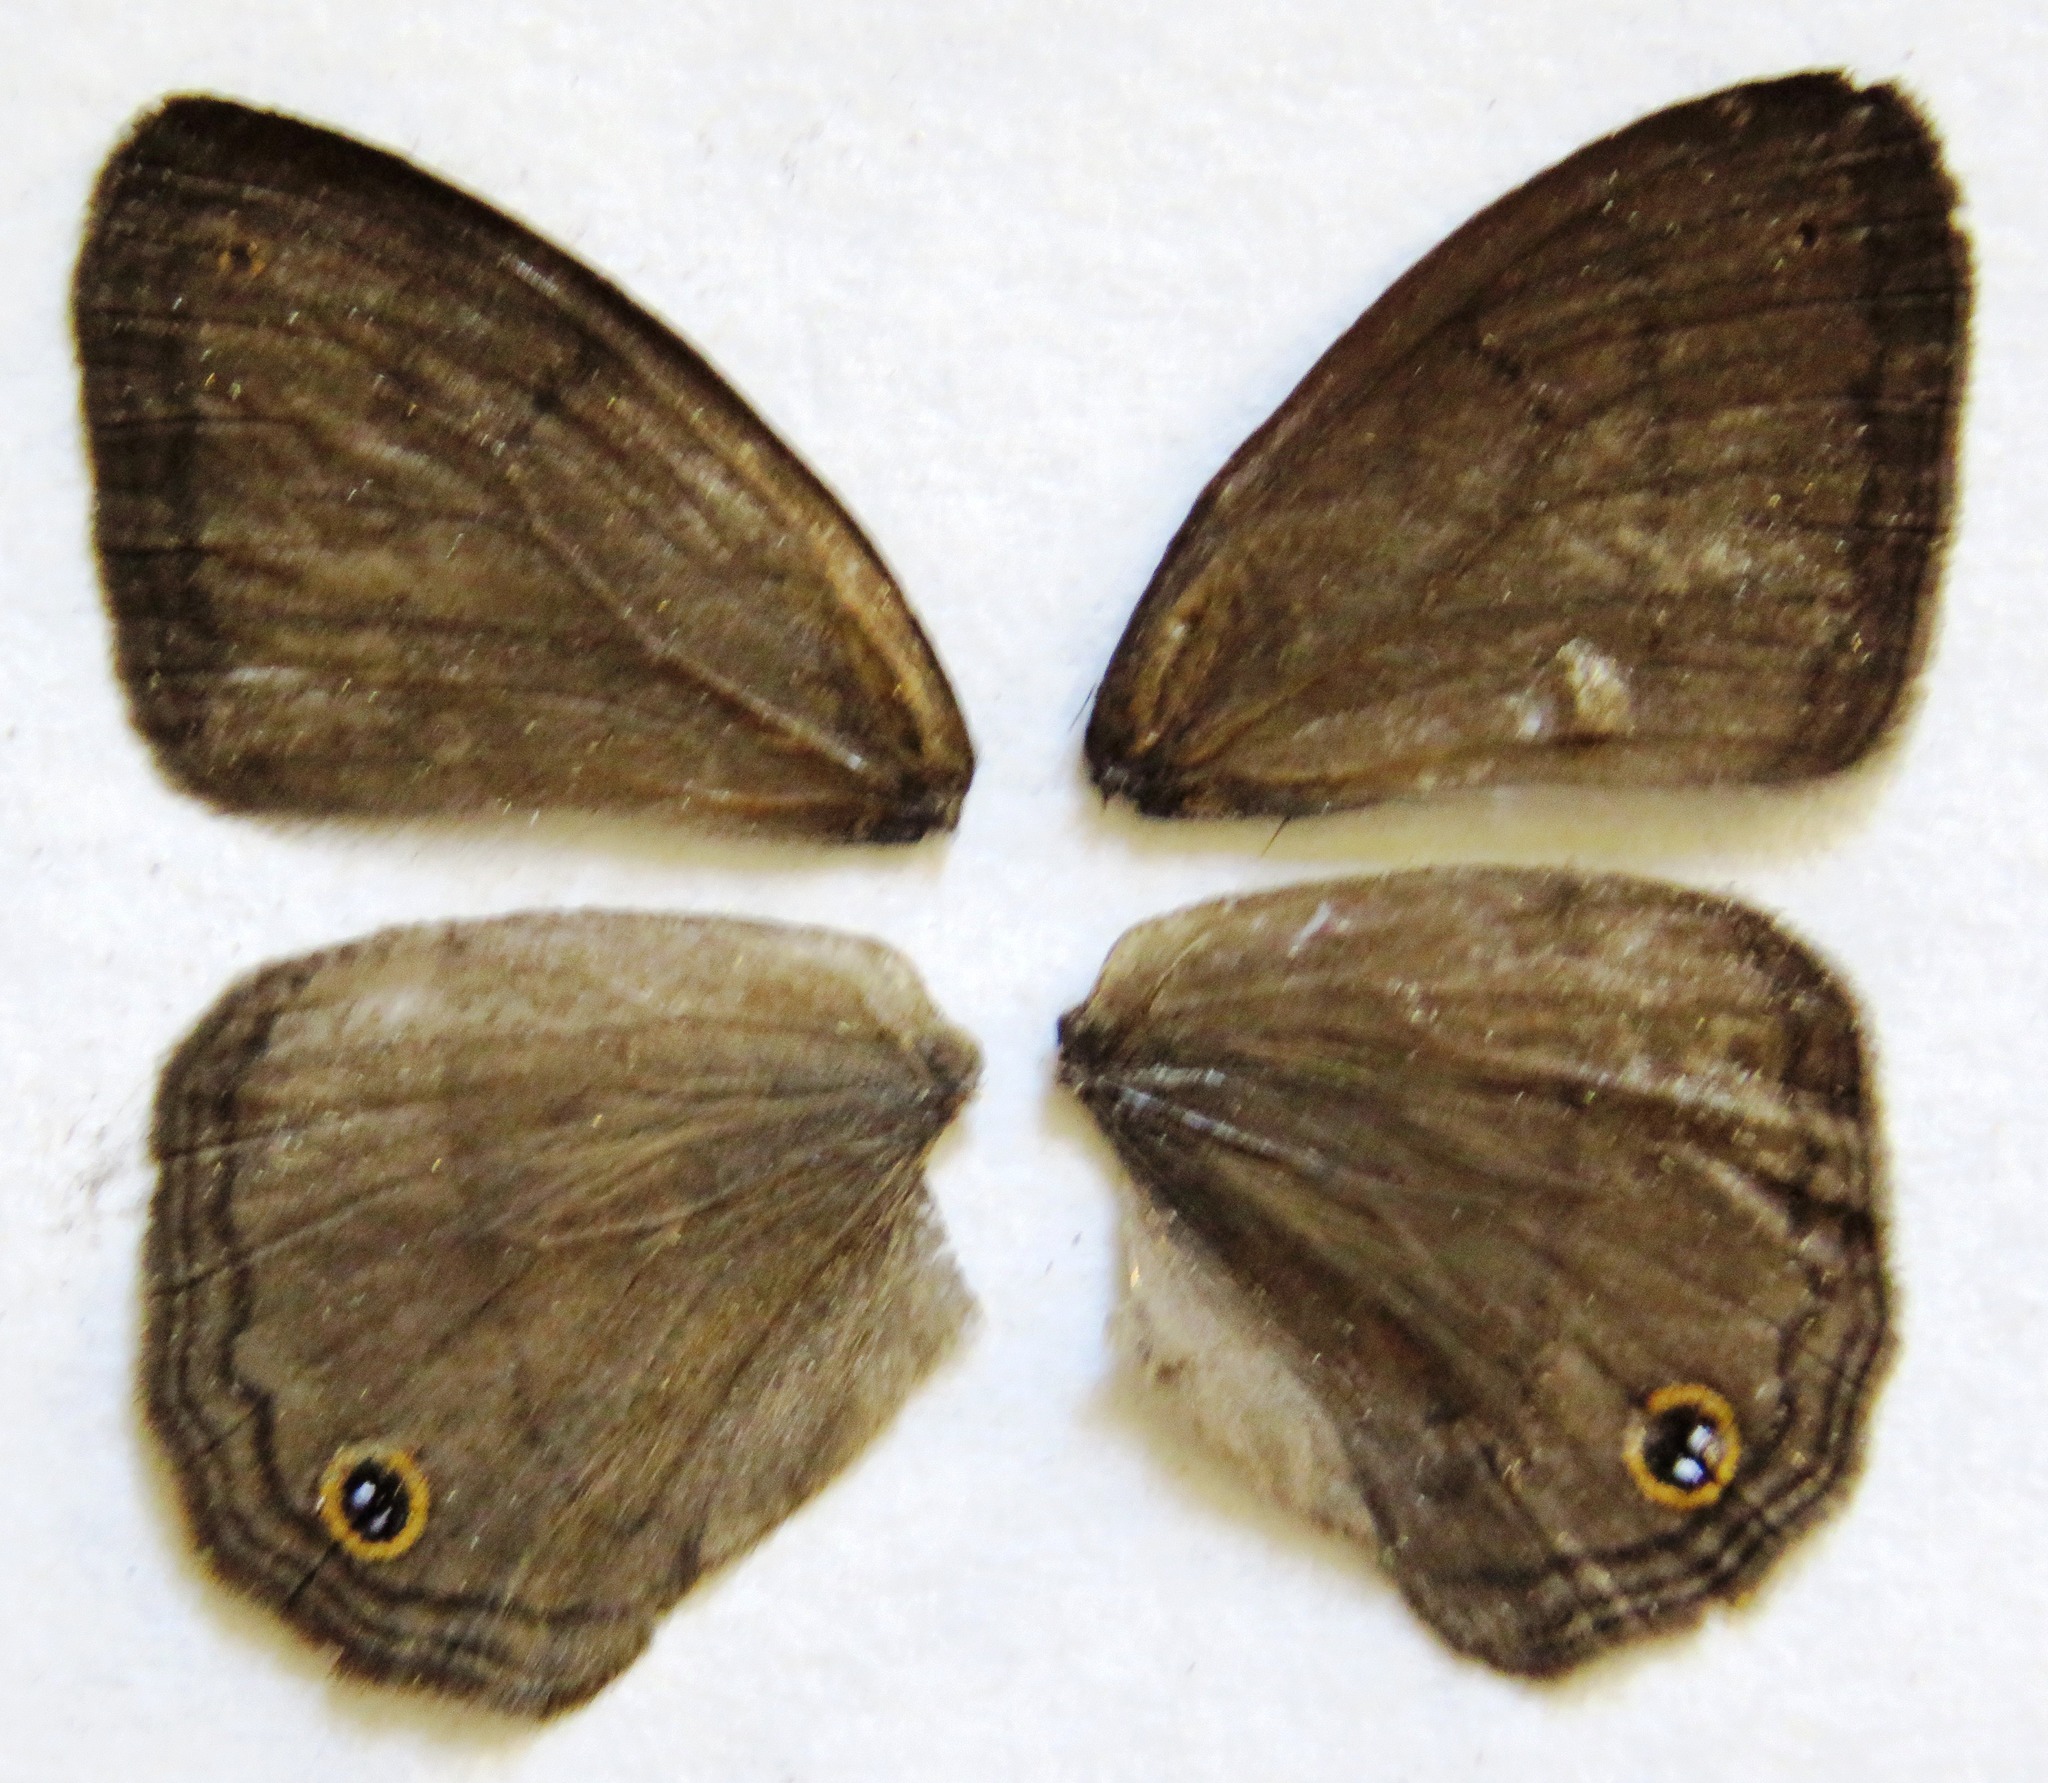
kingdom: Animalia
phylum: Arthropoda
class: Insecta
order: Lepidoptera
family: Nymphalidae
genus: Euptychia
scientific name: Euptychia Cissia pompilia
